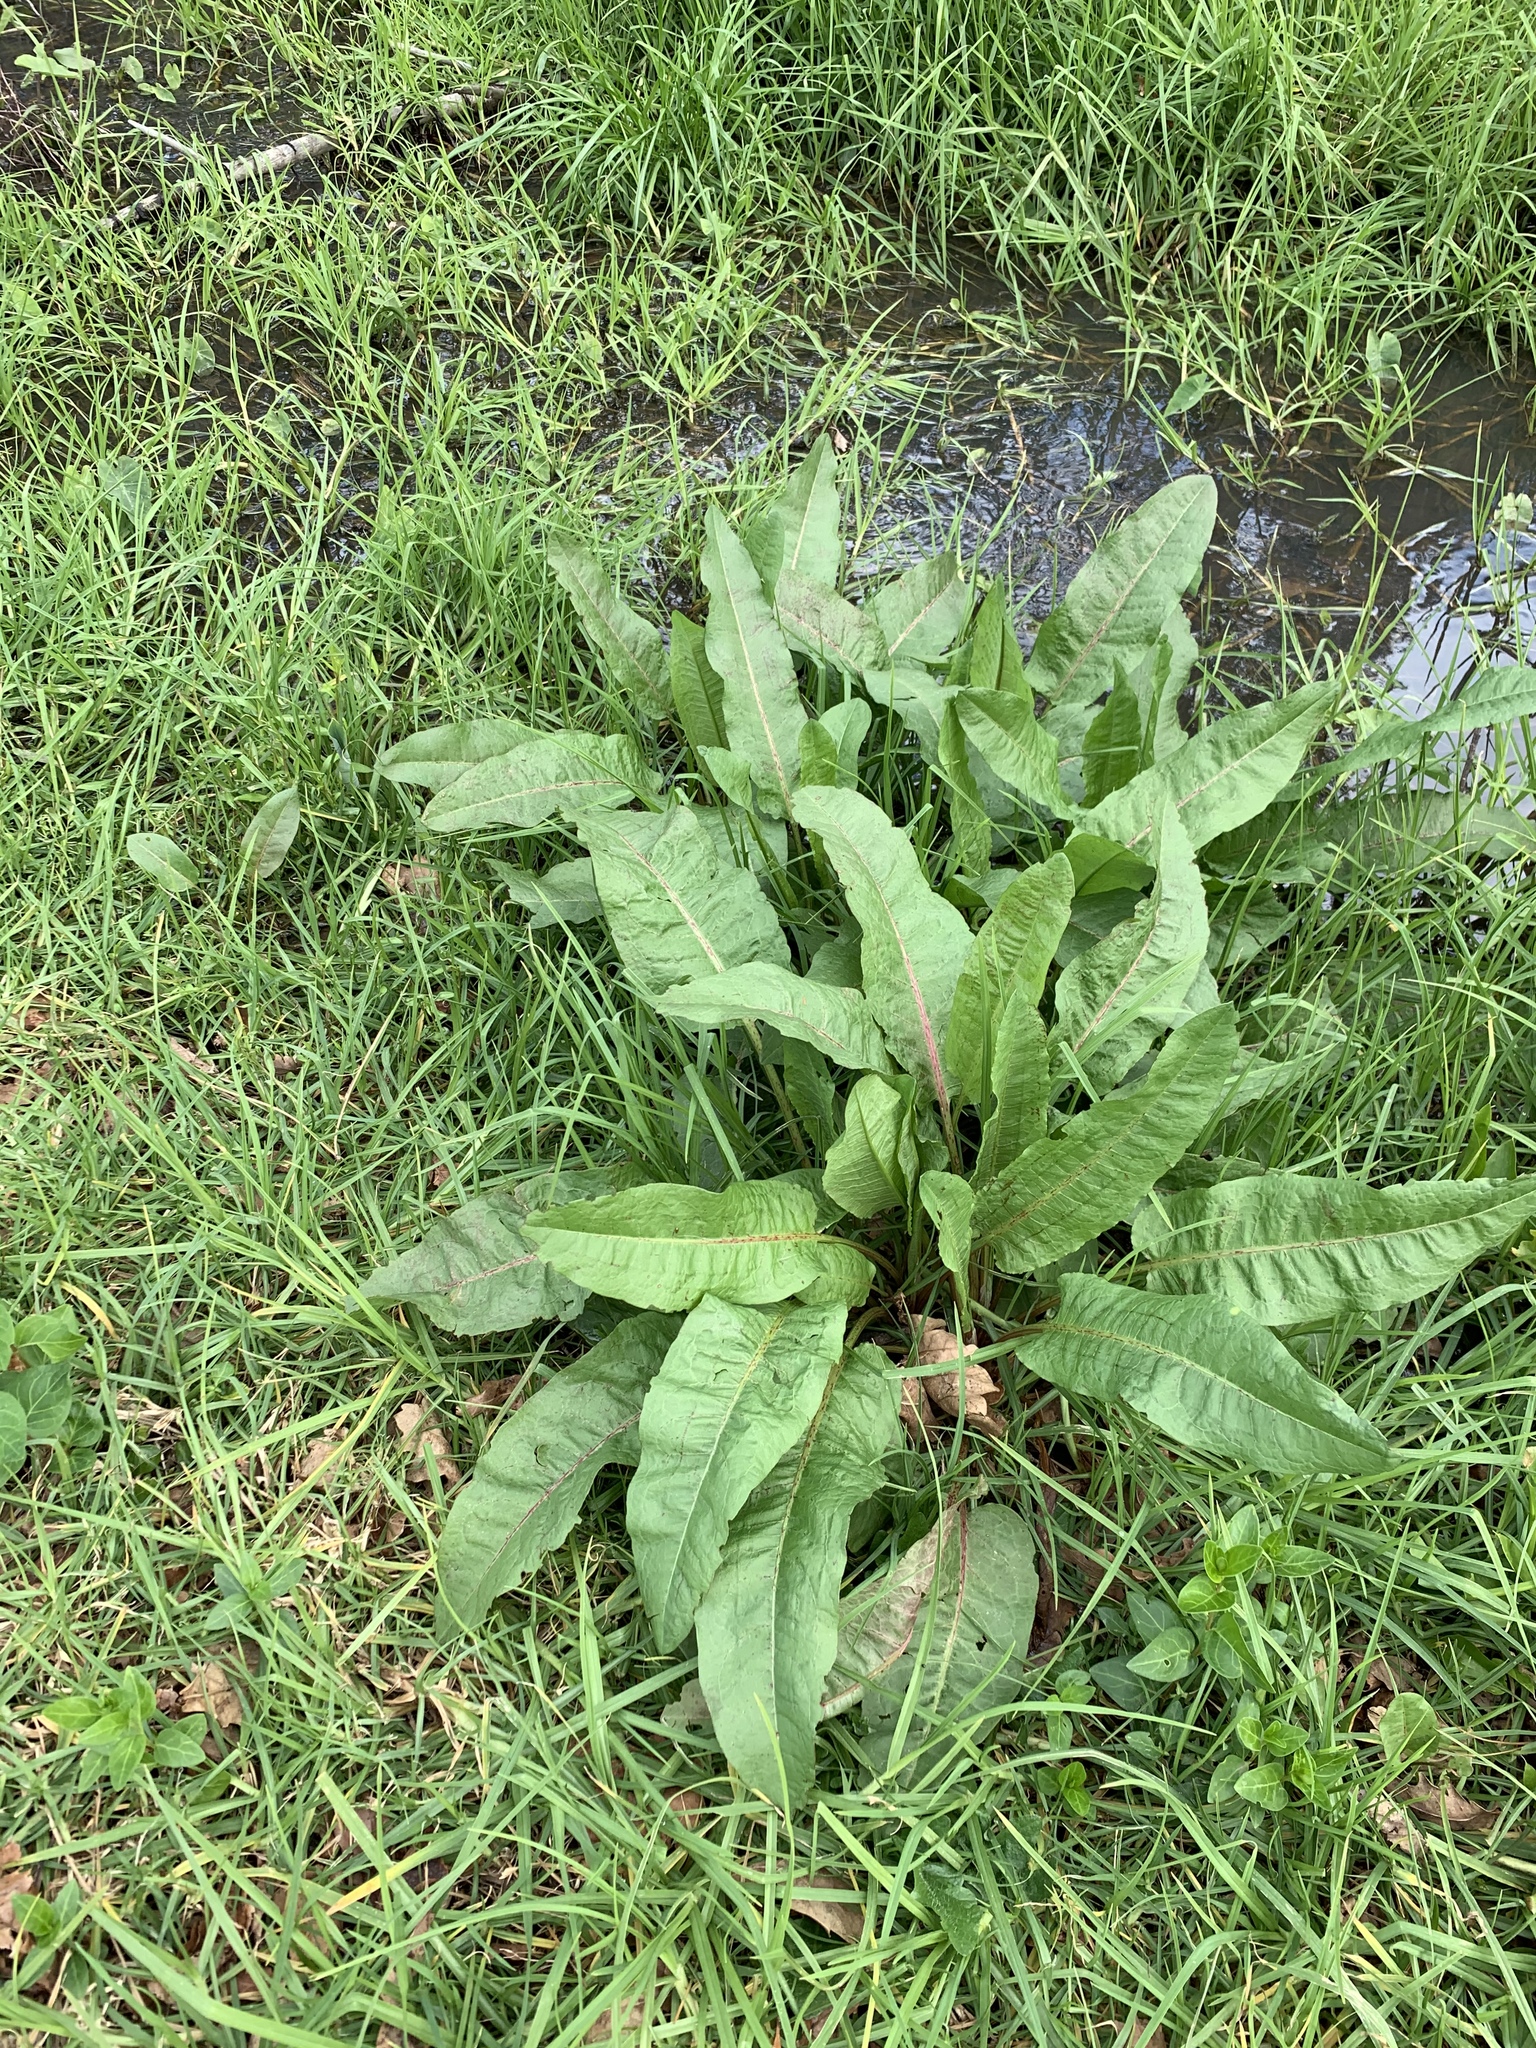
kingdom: Plantae
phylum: Tracheophyta
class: Magnoliopsida
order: Caryophyllales
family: Polygonaceae
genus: Rumex
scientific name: Rumex crispus
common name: Curled dock
